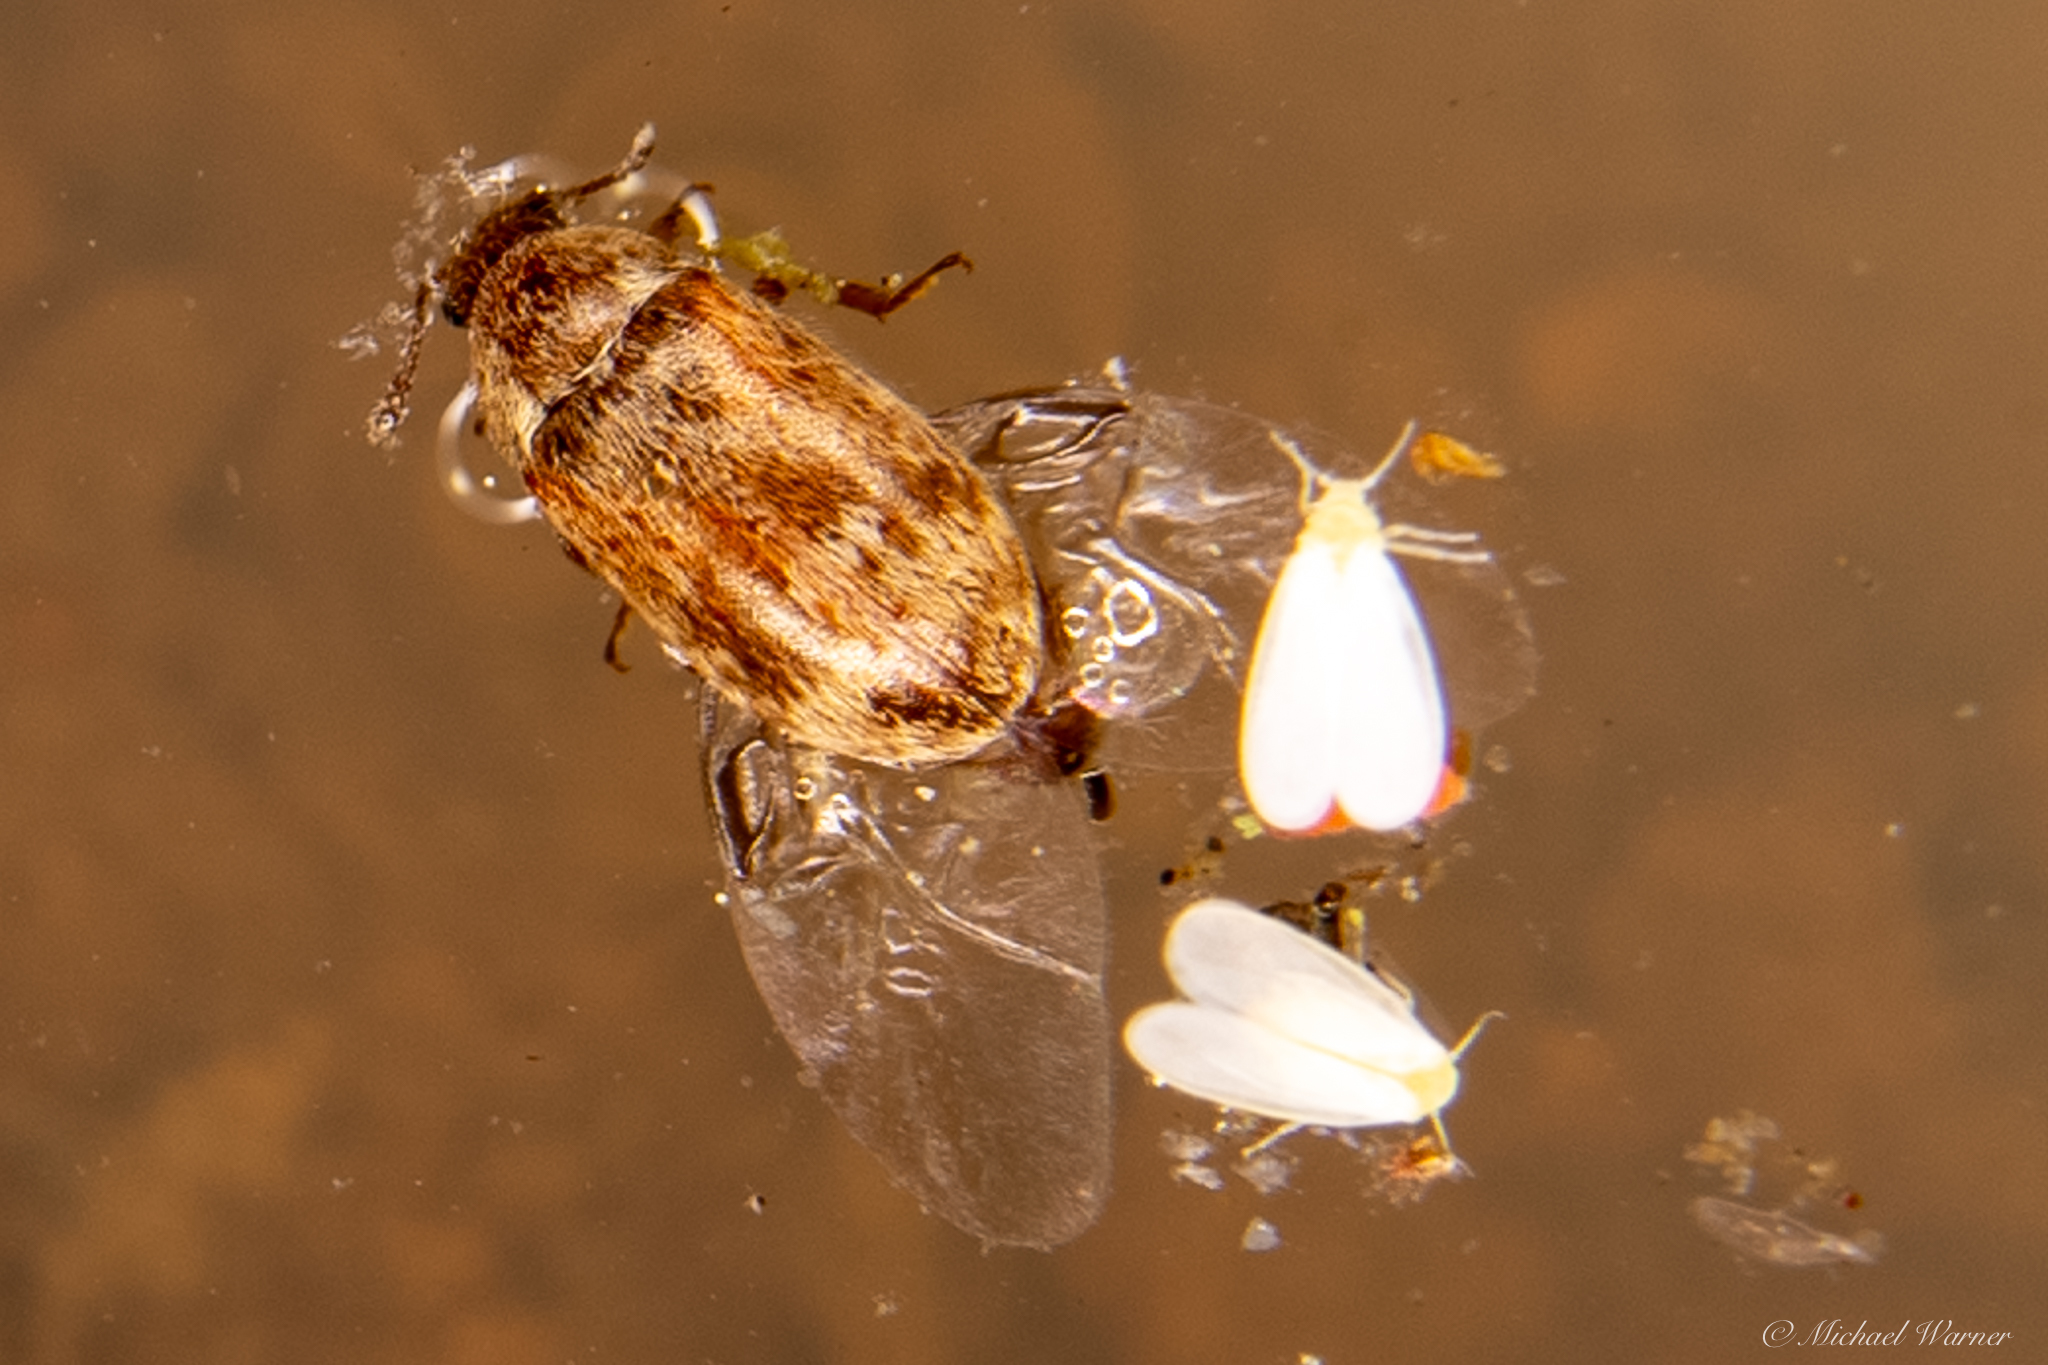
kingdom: Animalia
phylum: Arthropoda
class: Insecta
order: Coleoptera
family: Byturidae
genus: Xerasia
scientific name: Xerasia grisescens
